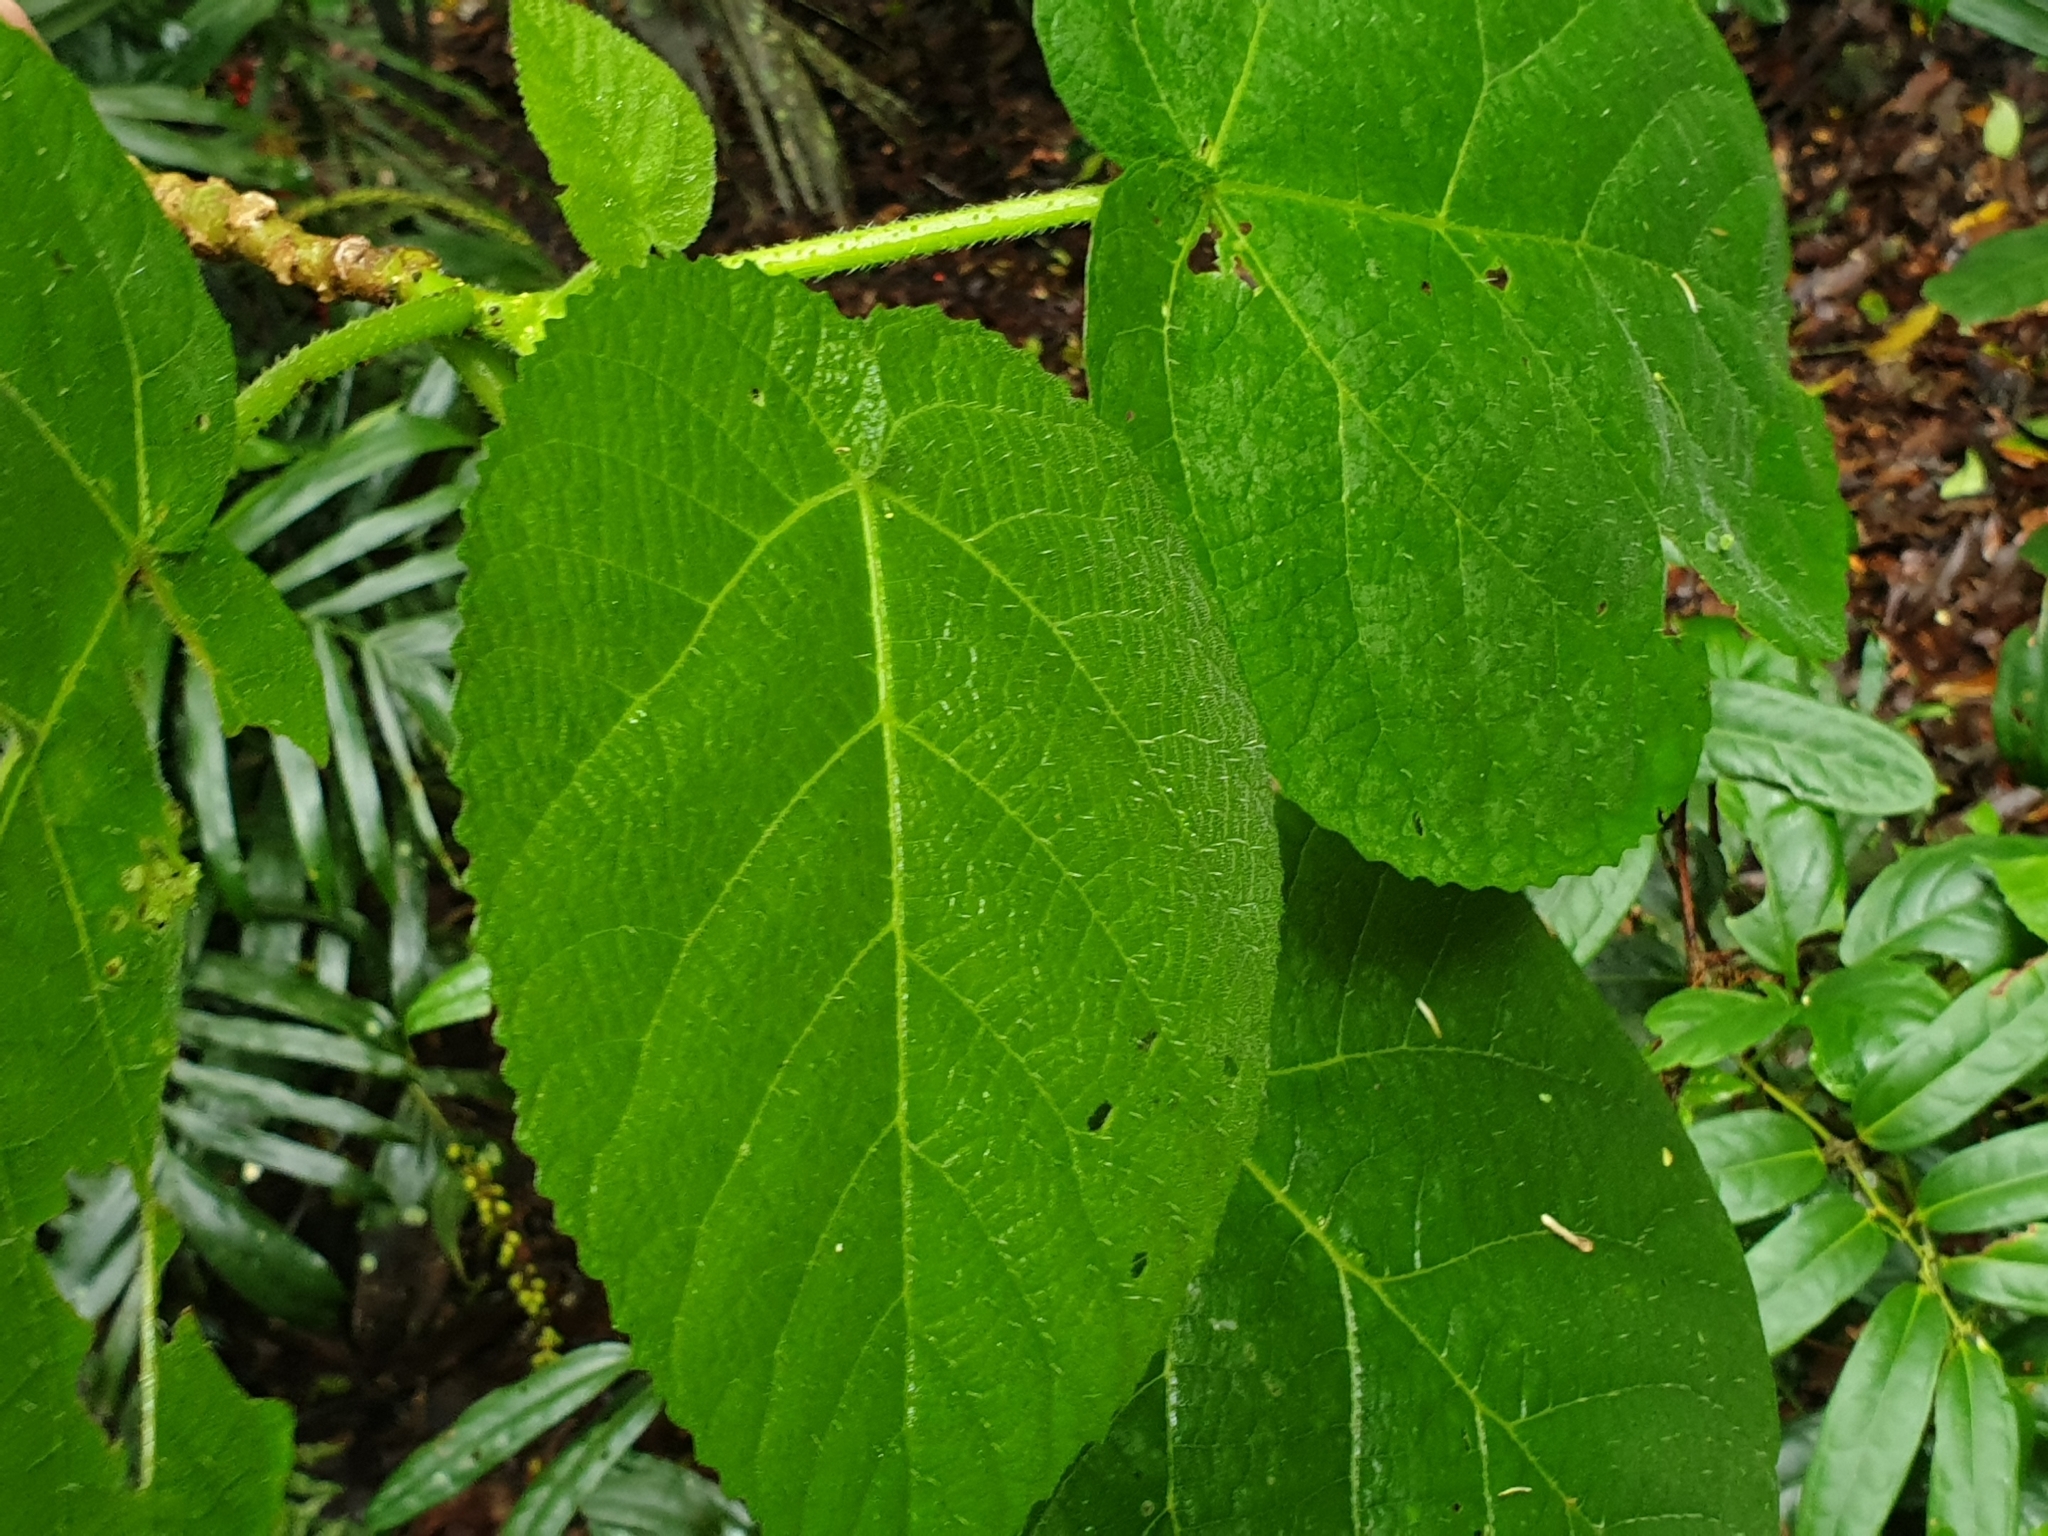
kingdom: Plantae
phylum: Tracheophyta
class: Magnoliopsida
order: Rosales
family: Urticaceae
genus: Dendrocnide
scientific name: Dendrocnide excelsa
